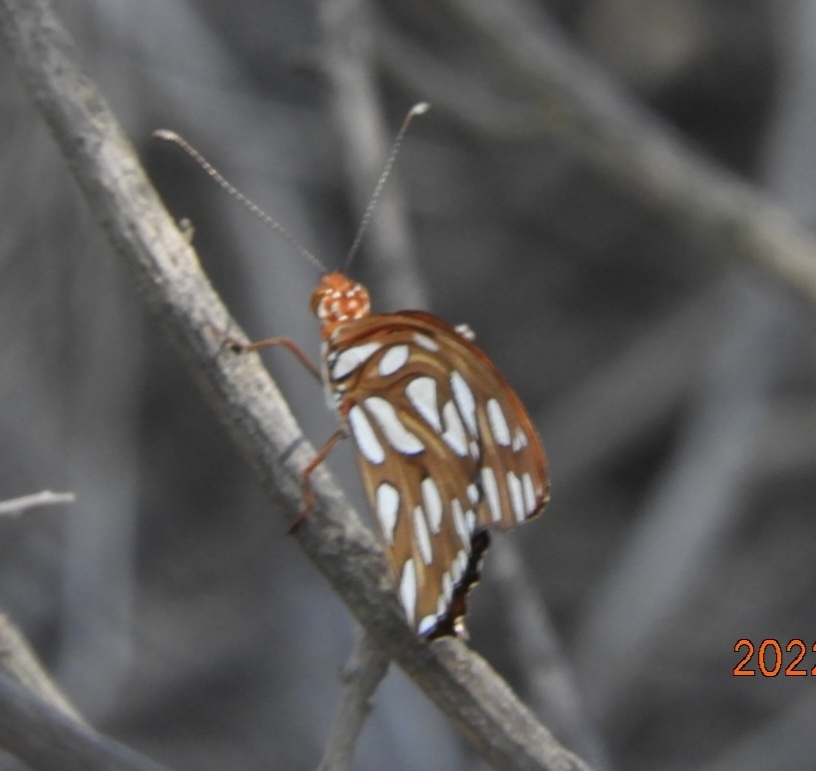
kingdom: Animalia
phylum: Arthropoda
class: Insecta
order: Lepidoptera
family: Nymphalidae
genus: Dione
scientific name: Dione vanillae
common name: Gulf fritillary
